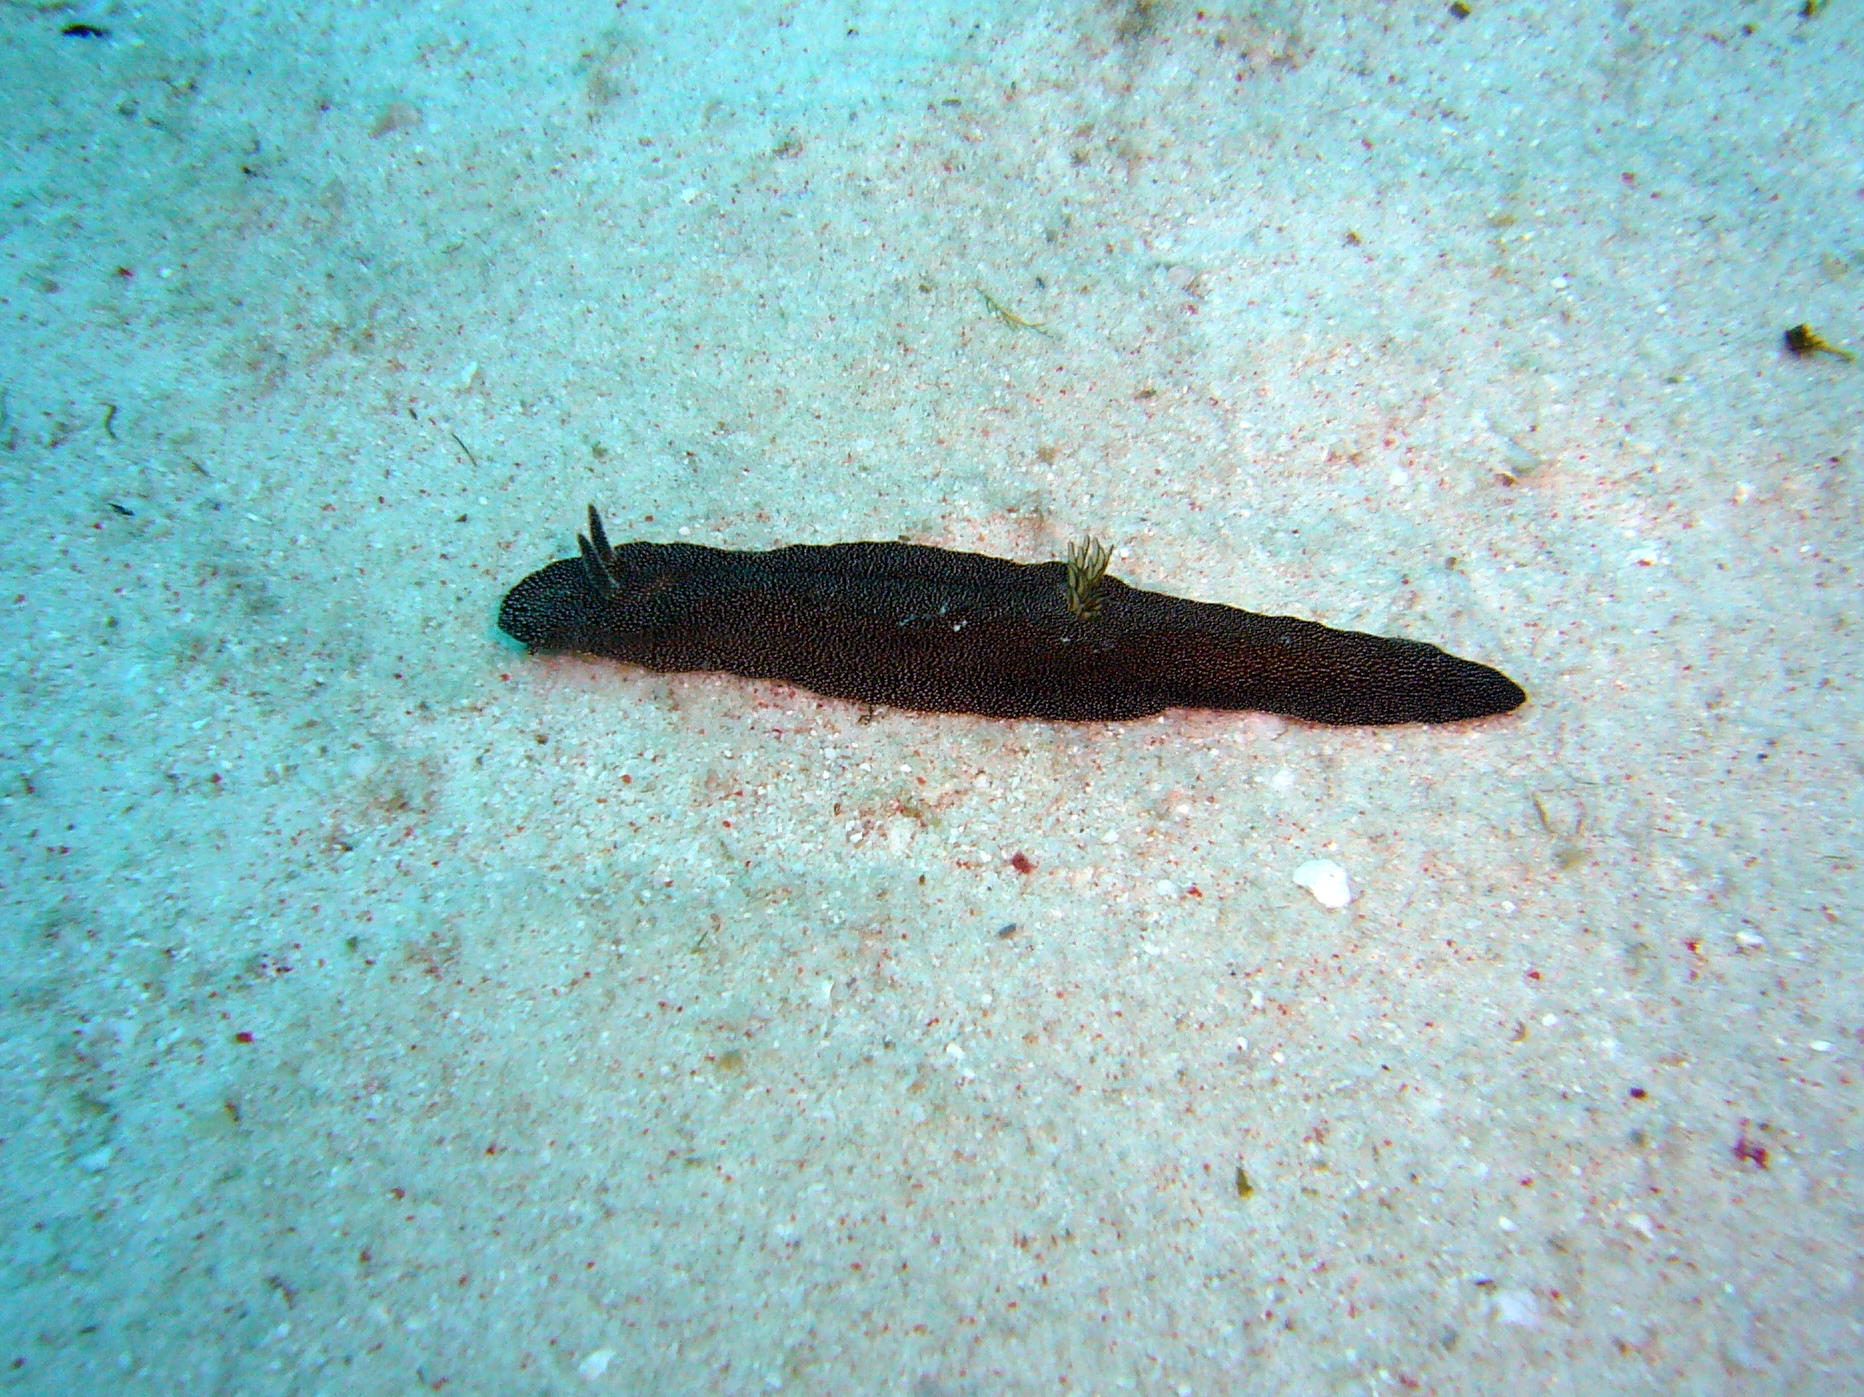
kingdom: Animalia
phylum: Mollusca
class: Gastropoda
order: Nudibranchia
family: Chromodorididae
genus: Doriprismatica
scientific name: Doriprismatica stellata
